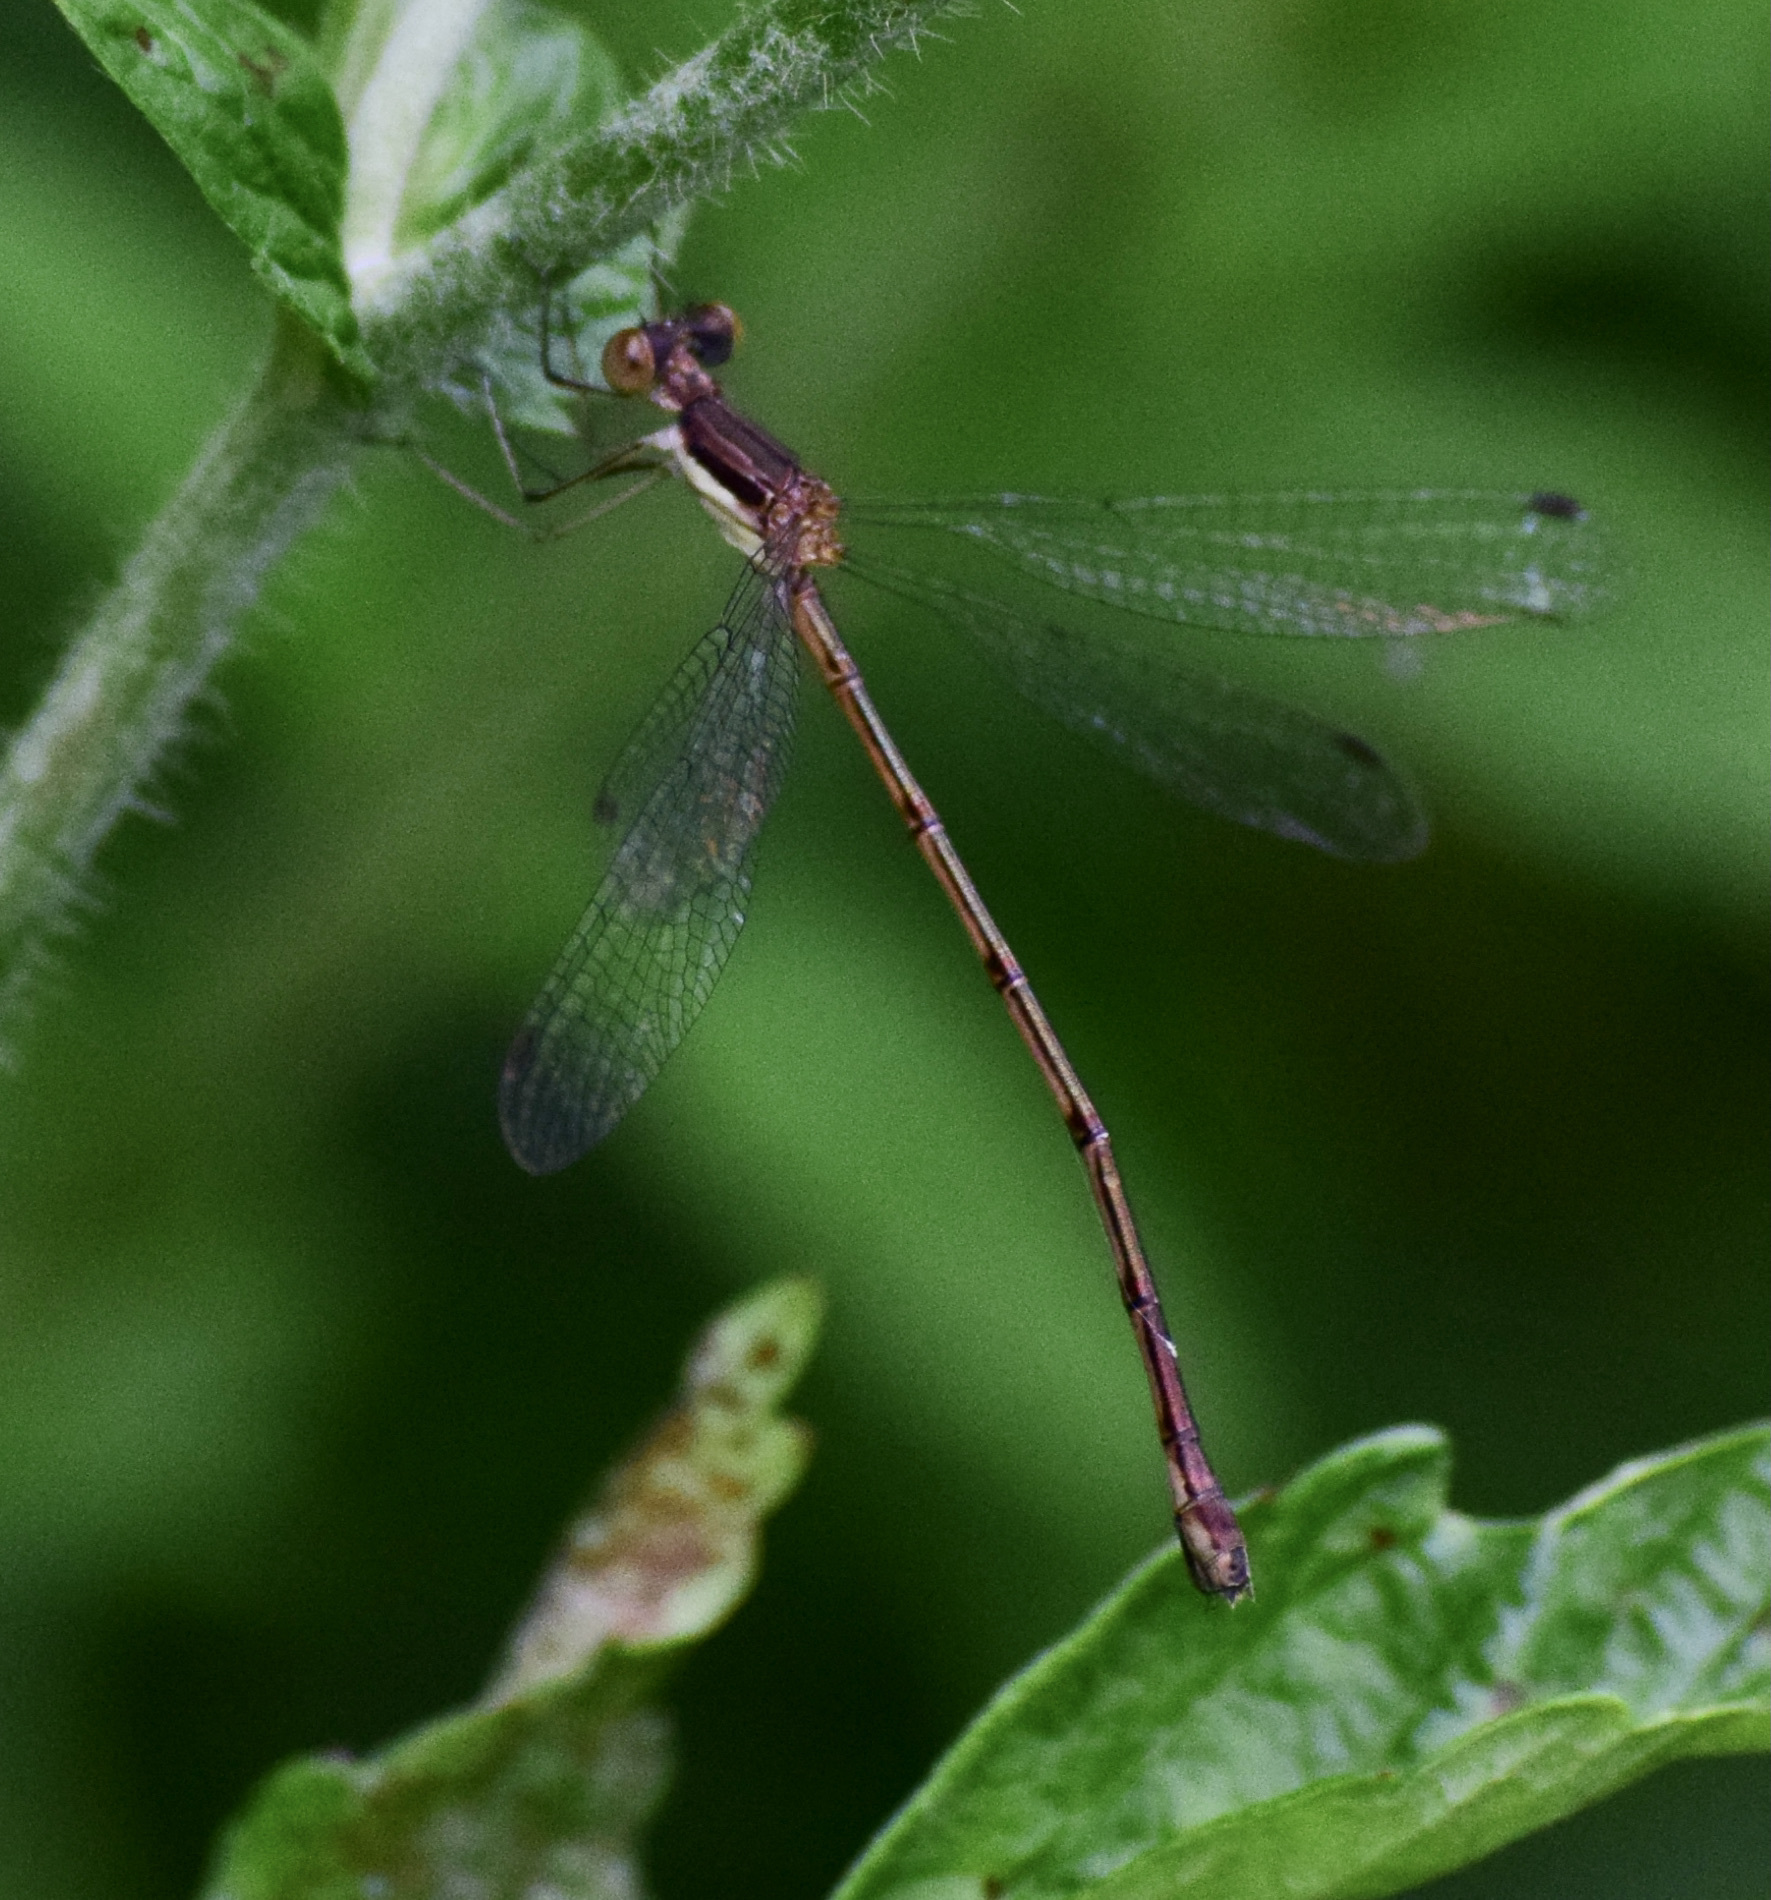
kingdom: Animalia
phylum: Arthropoda
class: Insecta
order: Odonata
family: Lestidae
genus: Lestes
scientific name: Lestes rectangularis
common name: Slender spreadwing
